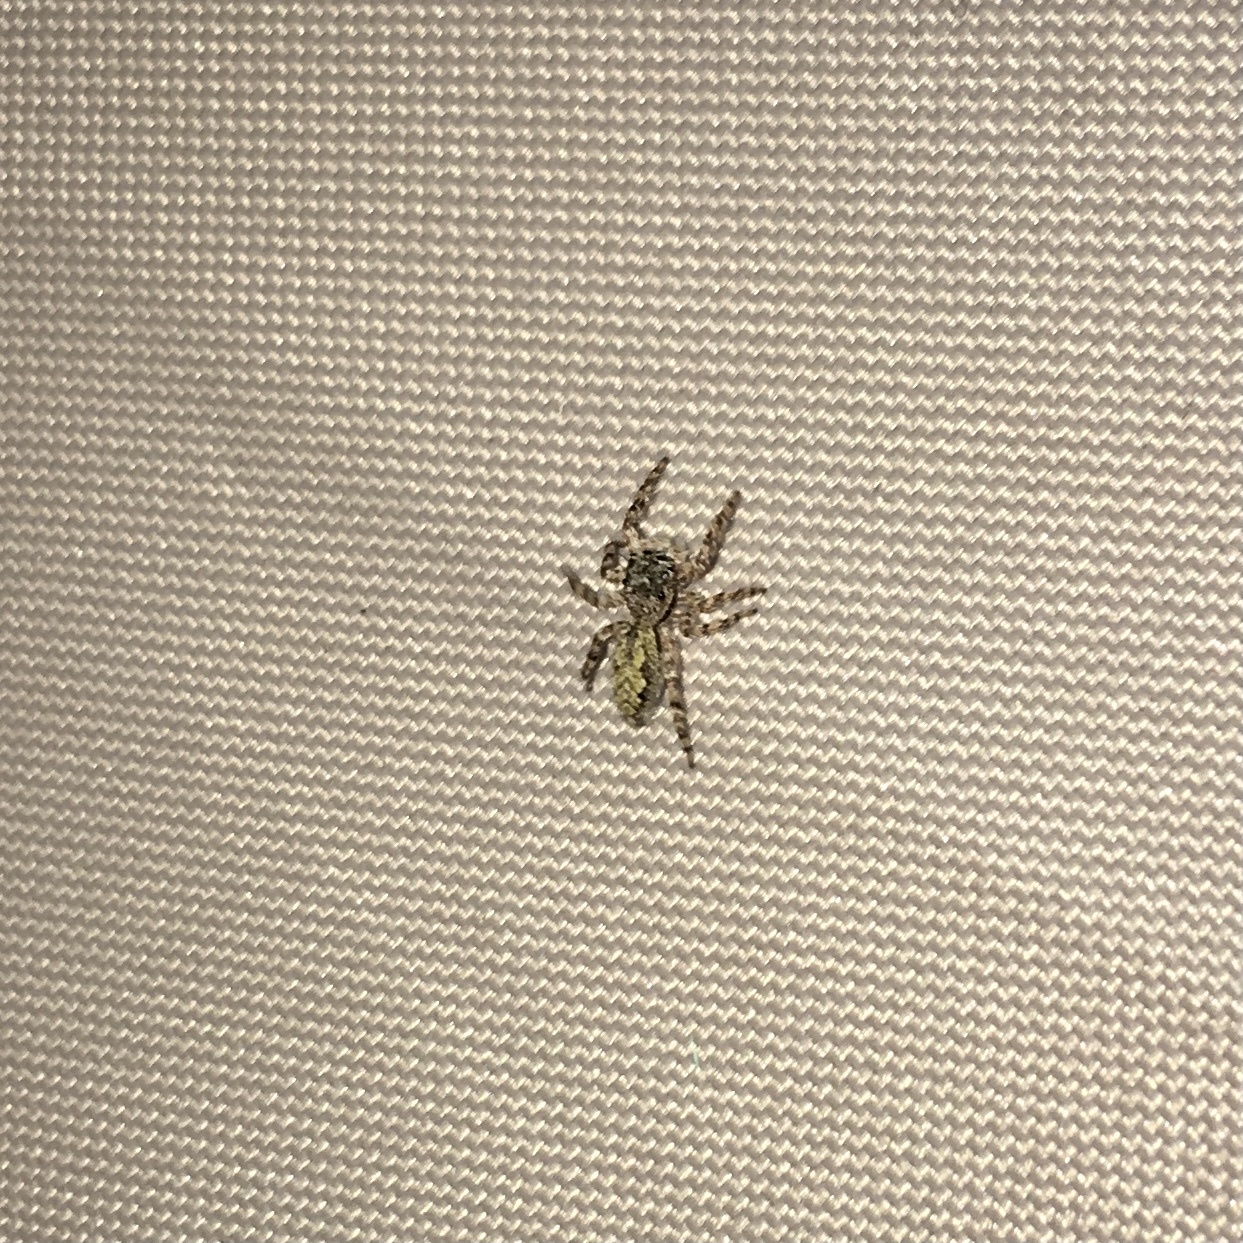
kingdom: Animalia
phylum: Arthropoda
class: Arachnida
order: Araneae
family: Salticidae
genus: Platycryptus
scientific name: Platycryptus undatus
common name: Tan jumping spider
